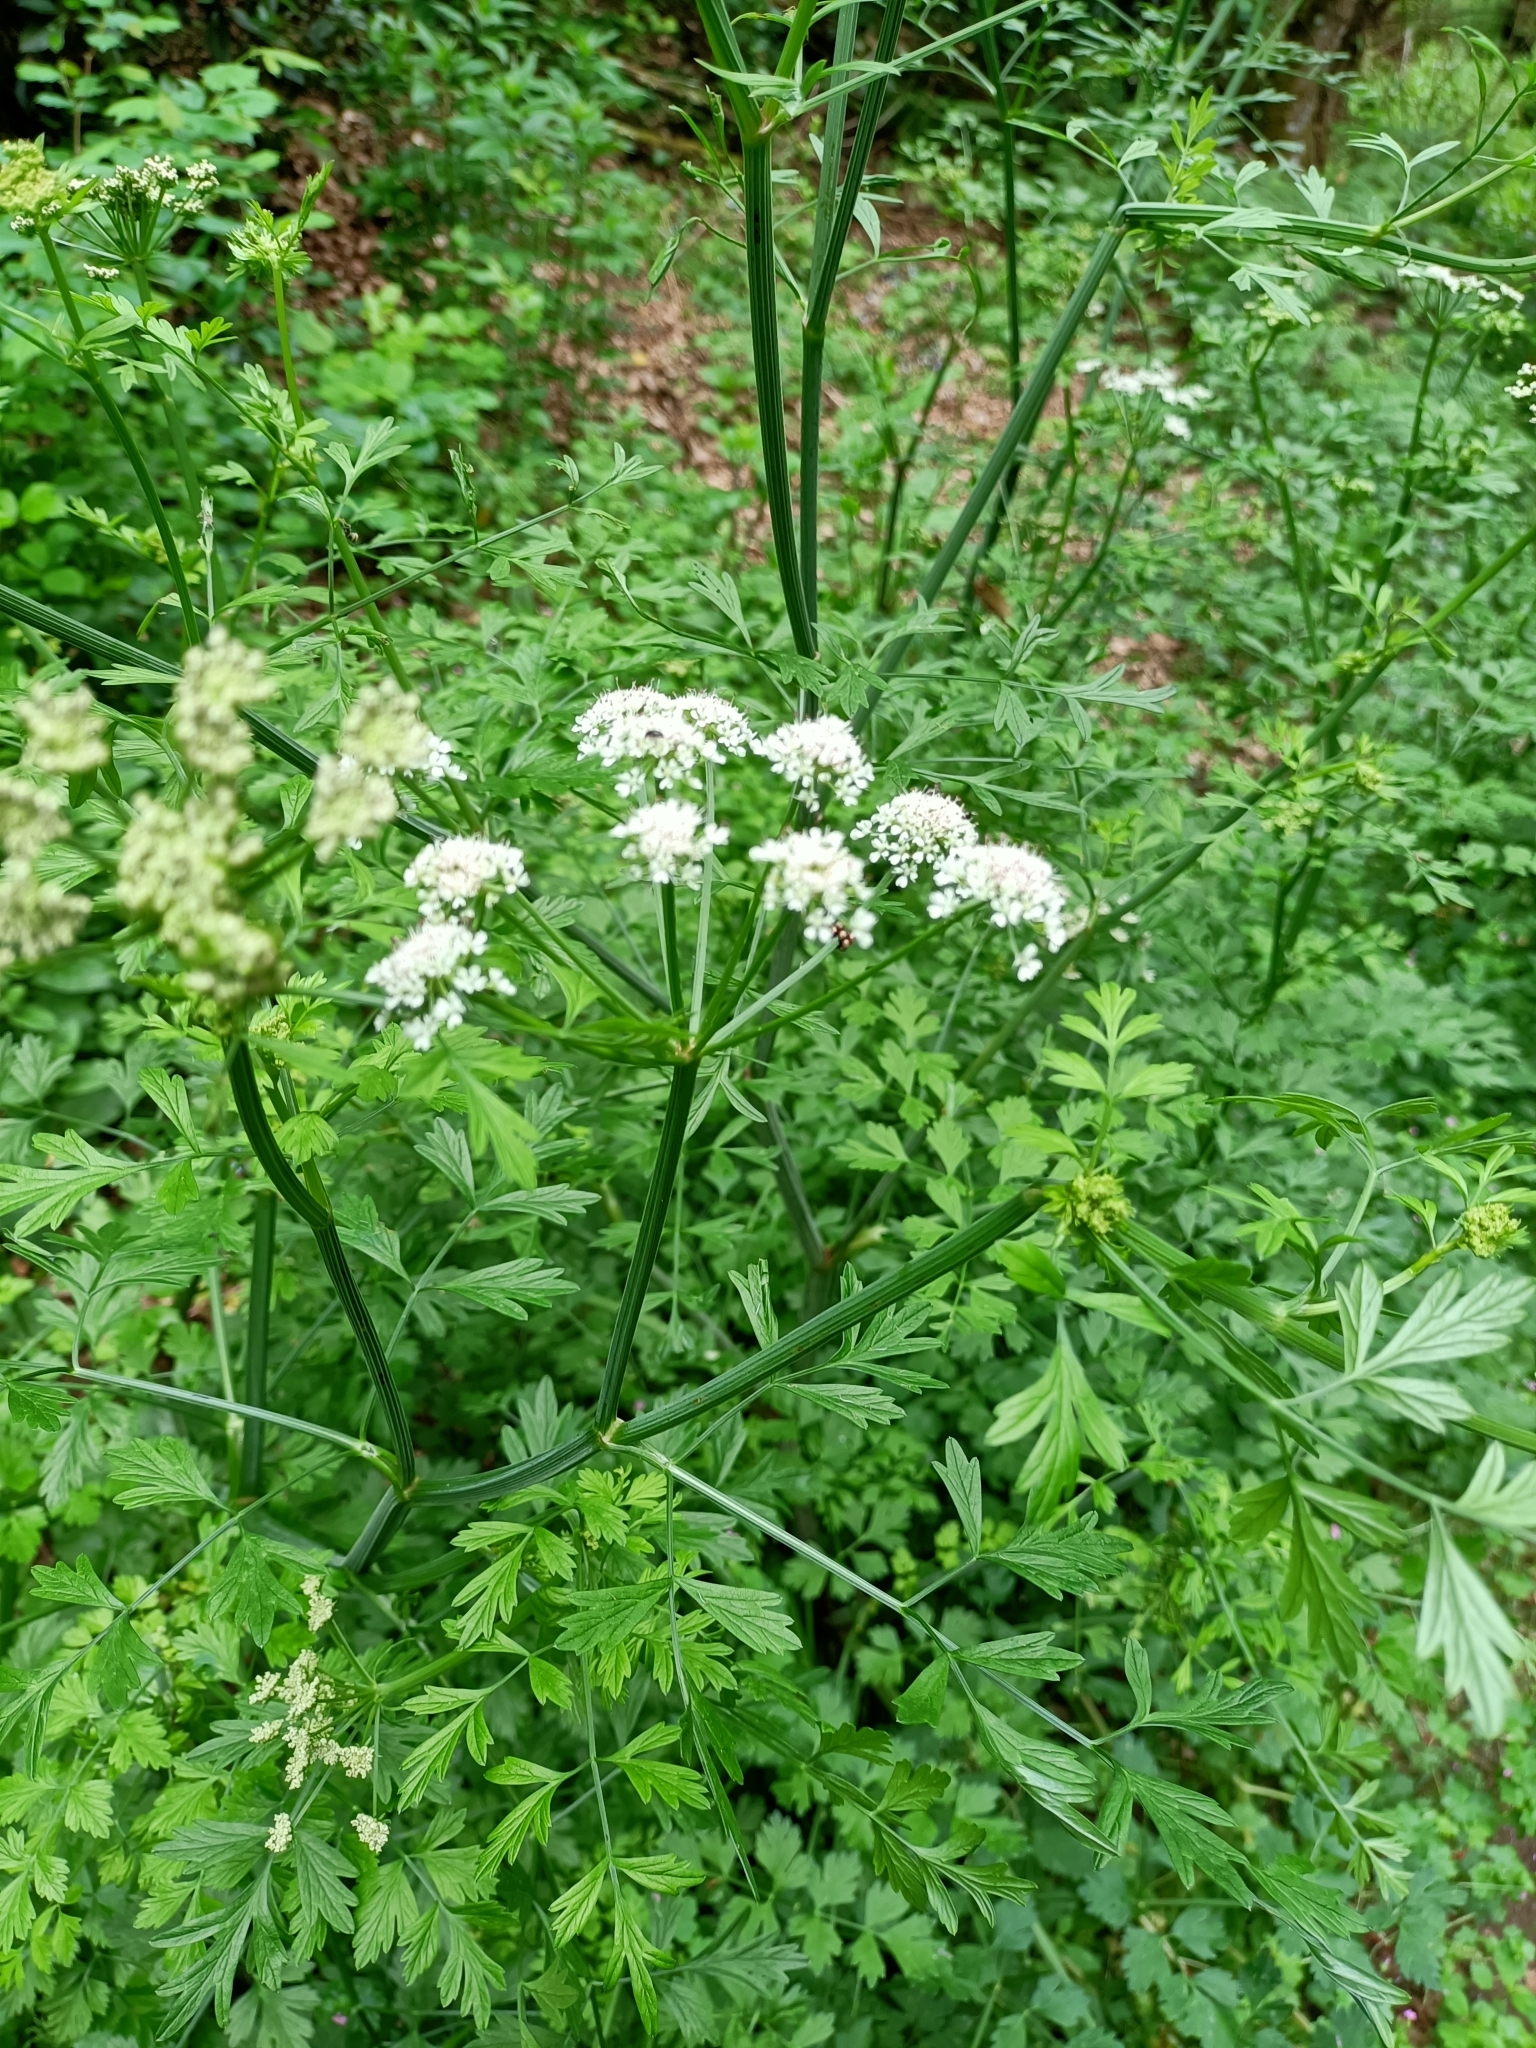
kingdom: Plantae
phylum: Tracheophyta
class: Magnoliopsida
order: Apiales
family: Apiaceae
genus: Oenanthe
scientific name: Oenanthe crocata
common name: Hemlock water-dropwort
